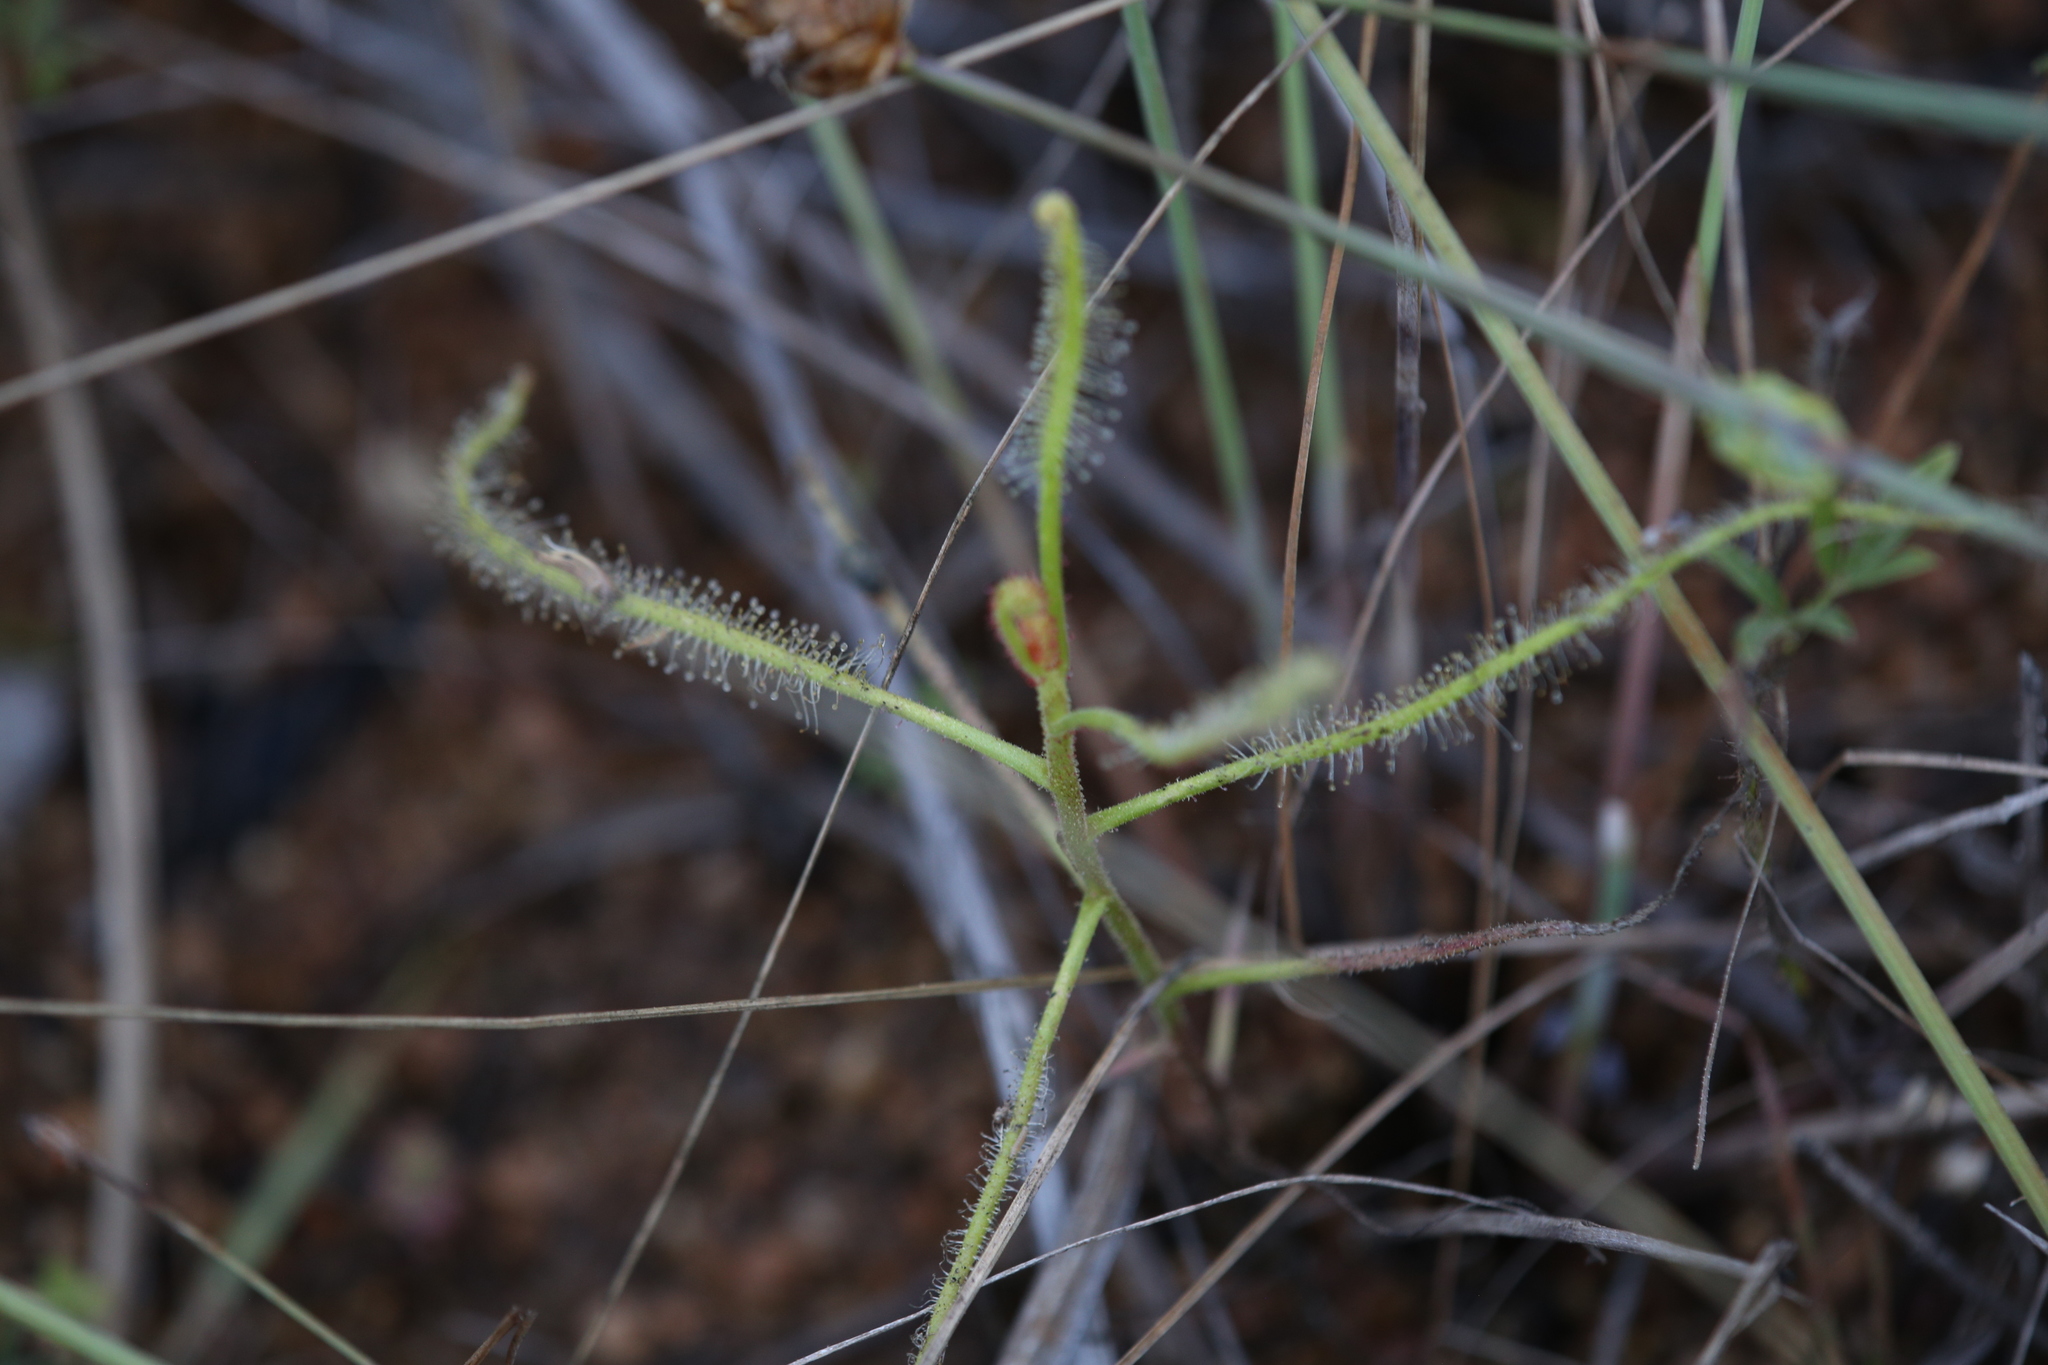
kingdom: Plantae
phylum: Tracheophyta
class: Magnoliopsida
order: Caryophyllales
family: Droseraceae
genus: Drosera
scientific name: Drosera indica
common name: Indian sundew
